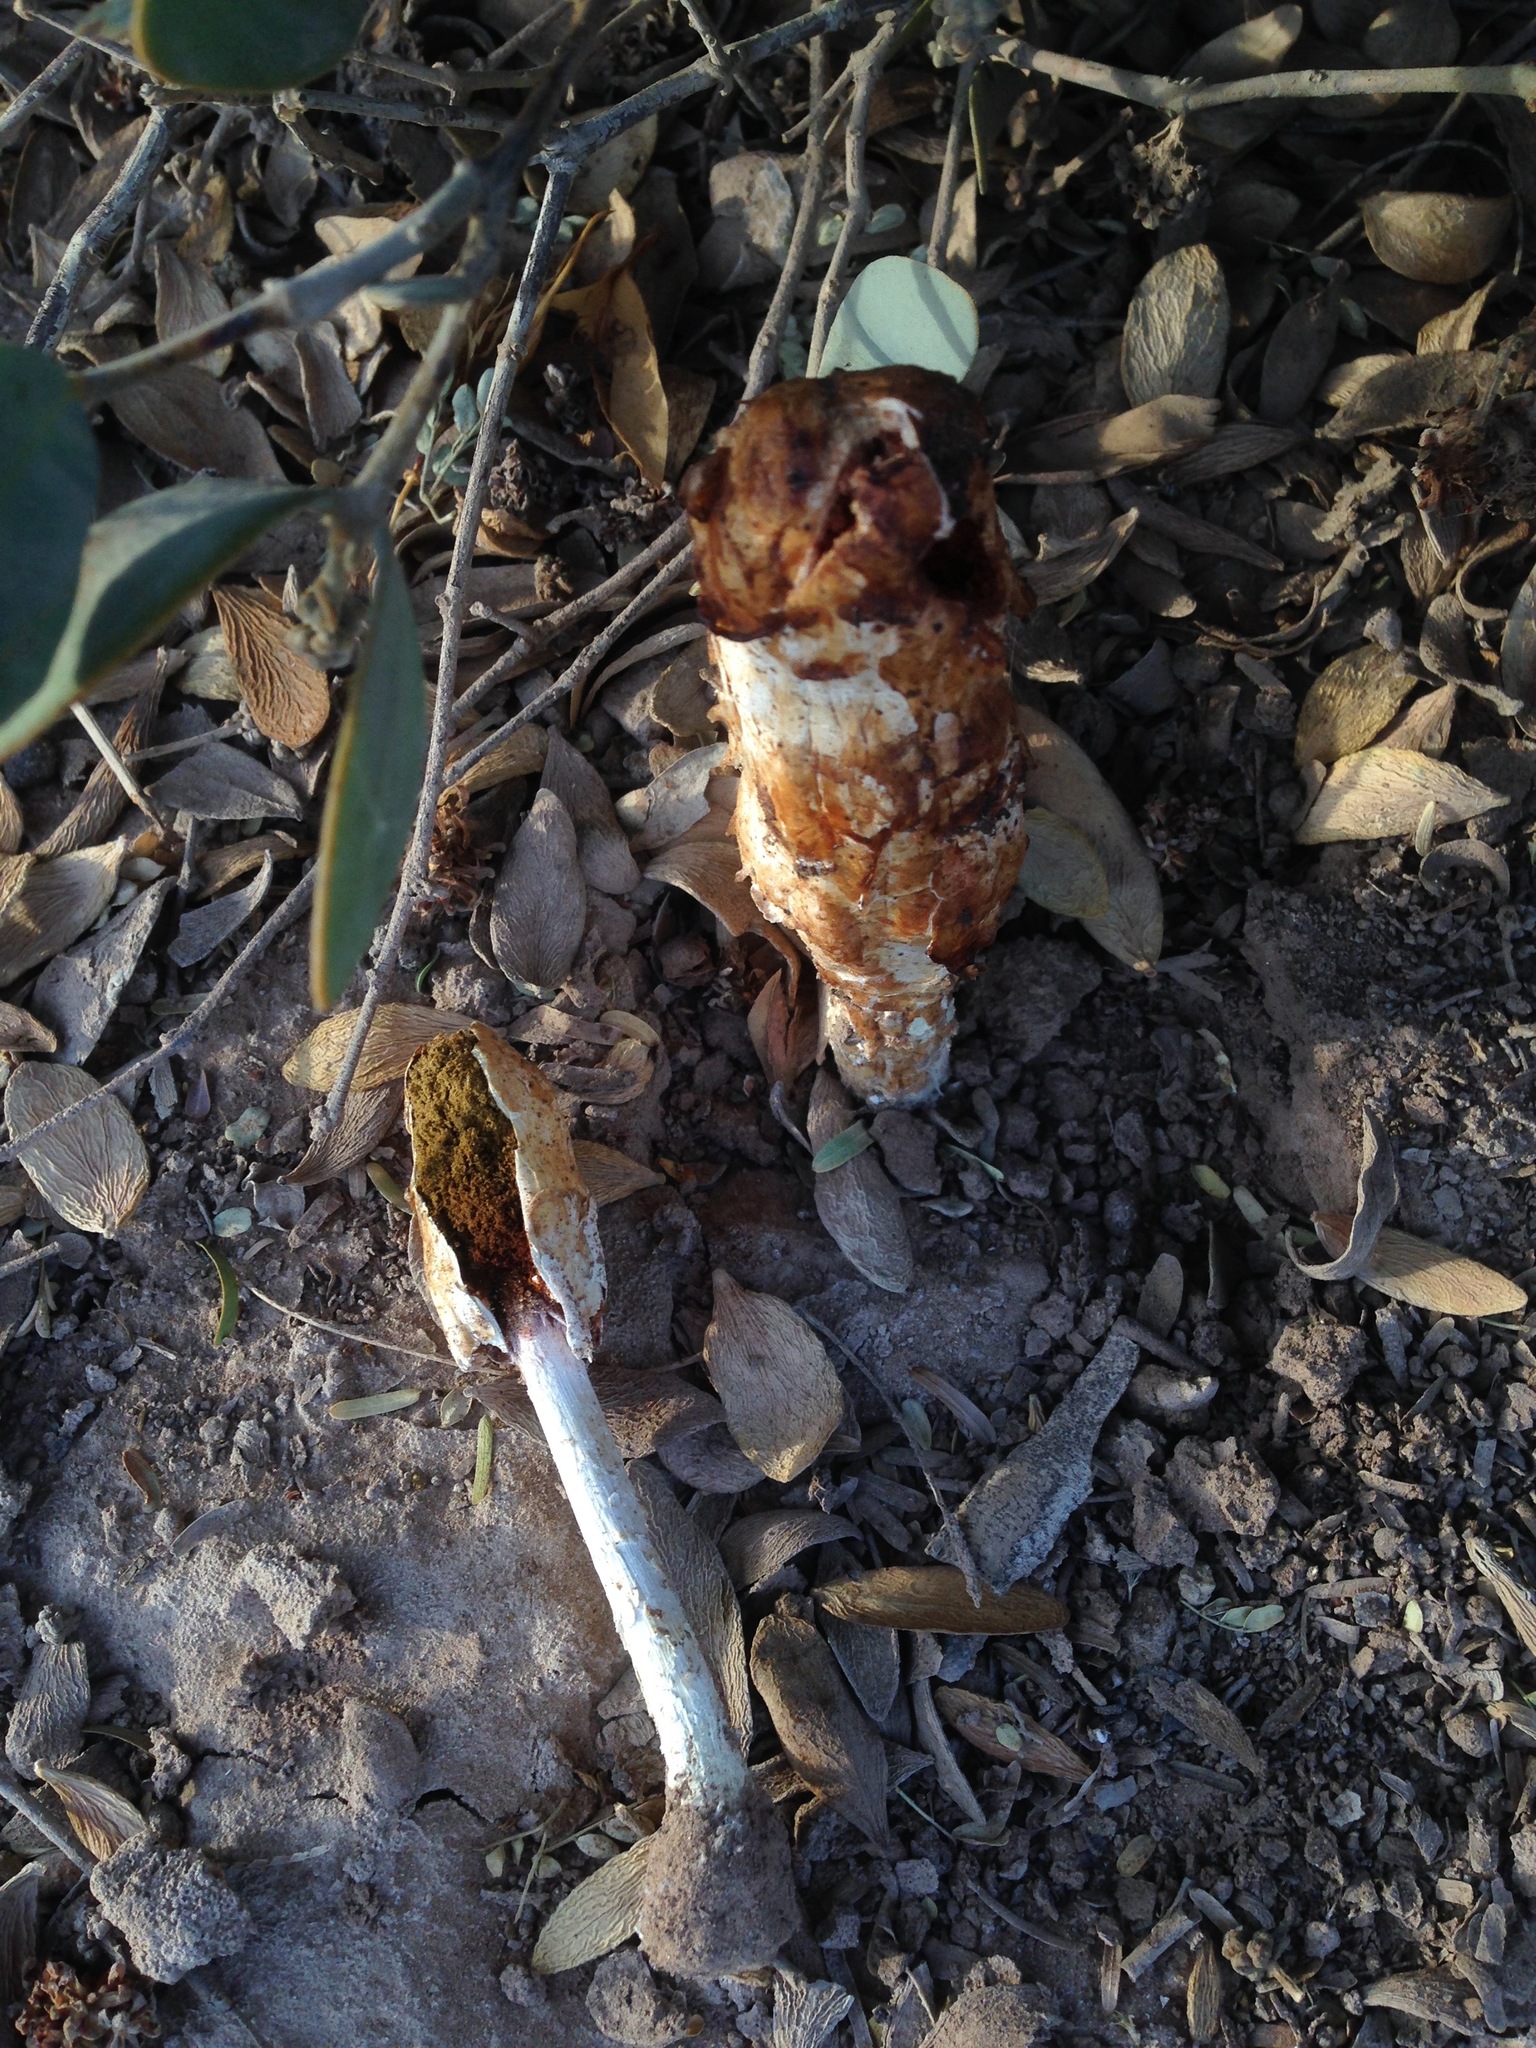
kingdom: Fungi
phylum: Basidiomycota
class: Agaricomycetes
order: Agaricales
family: Agaricaceae
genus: Podaxis
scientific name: Podaxis pistillaris
